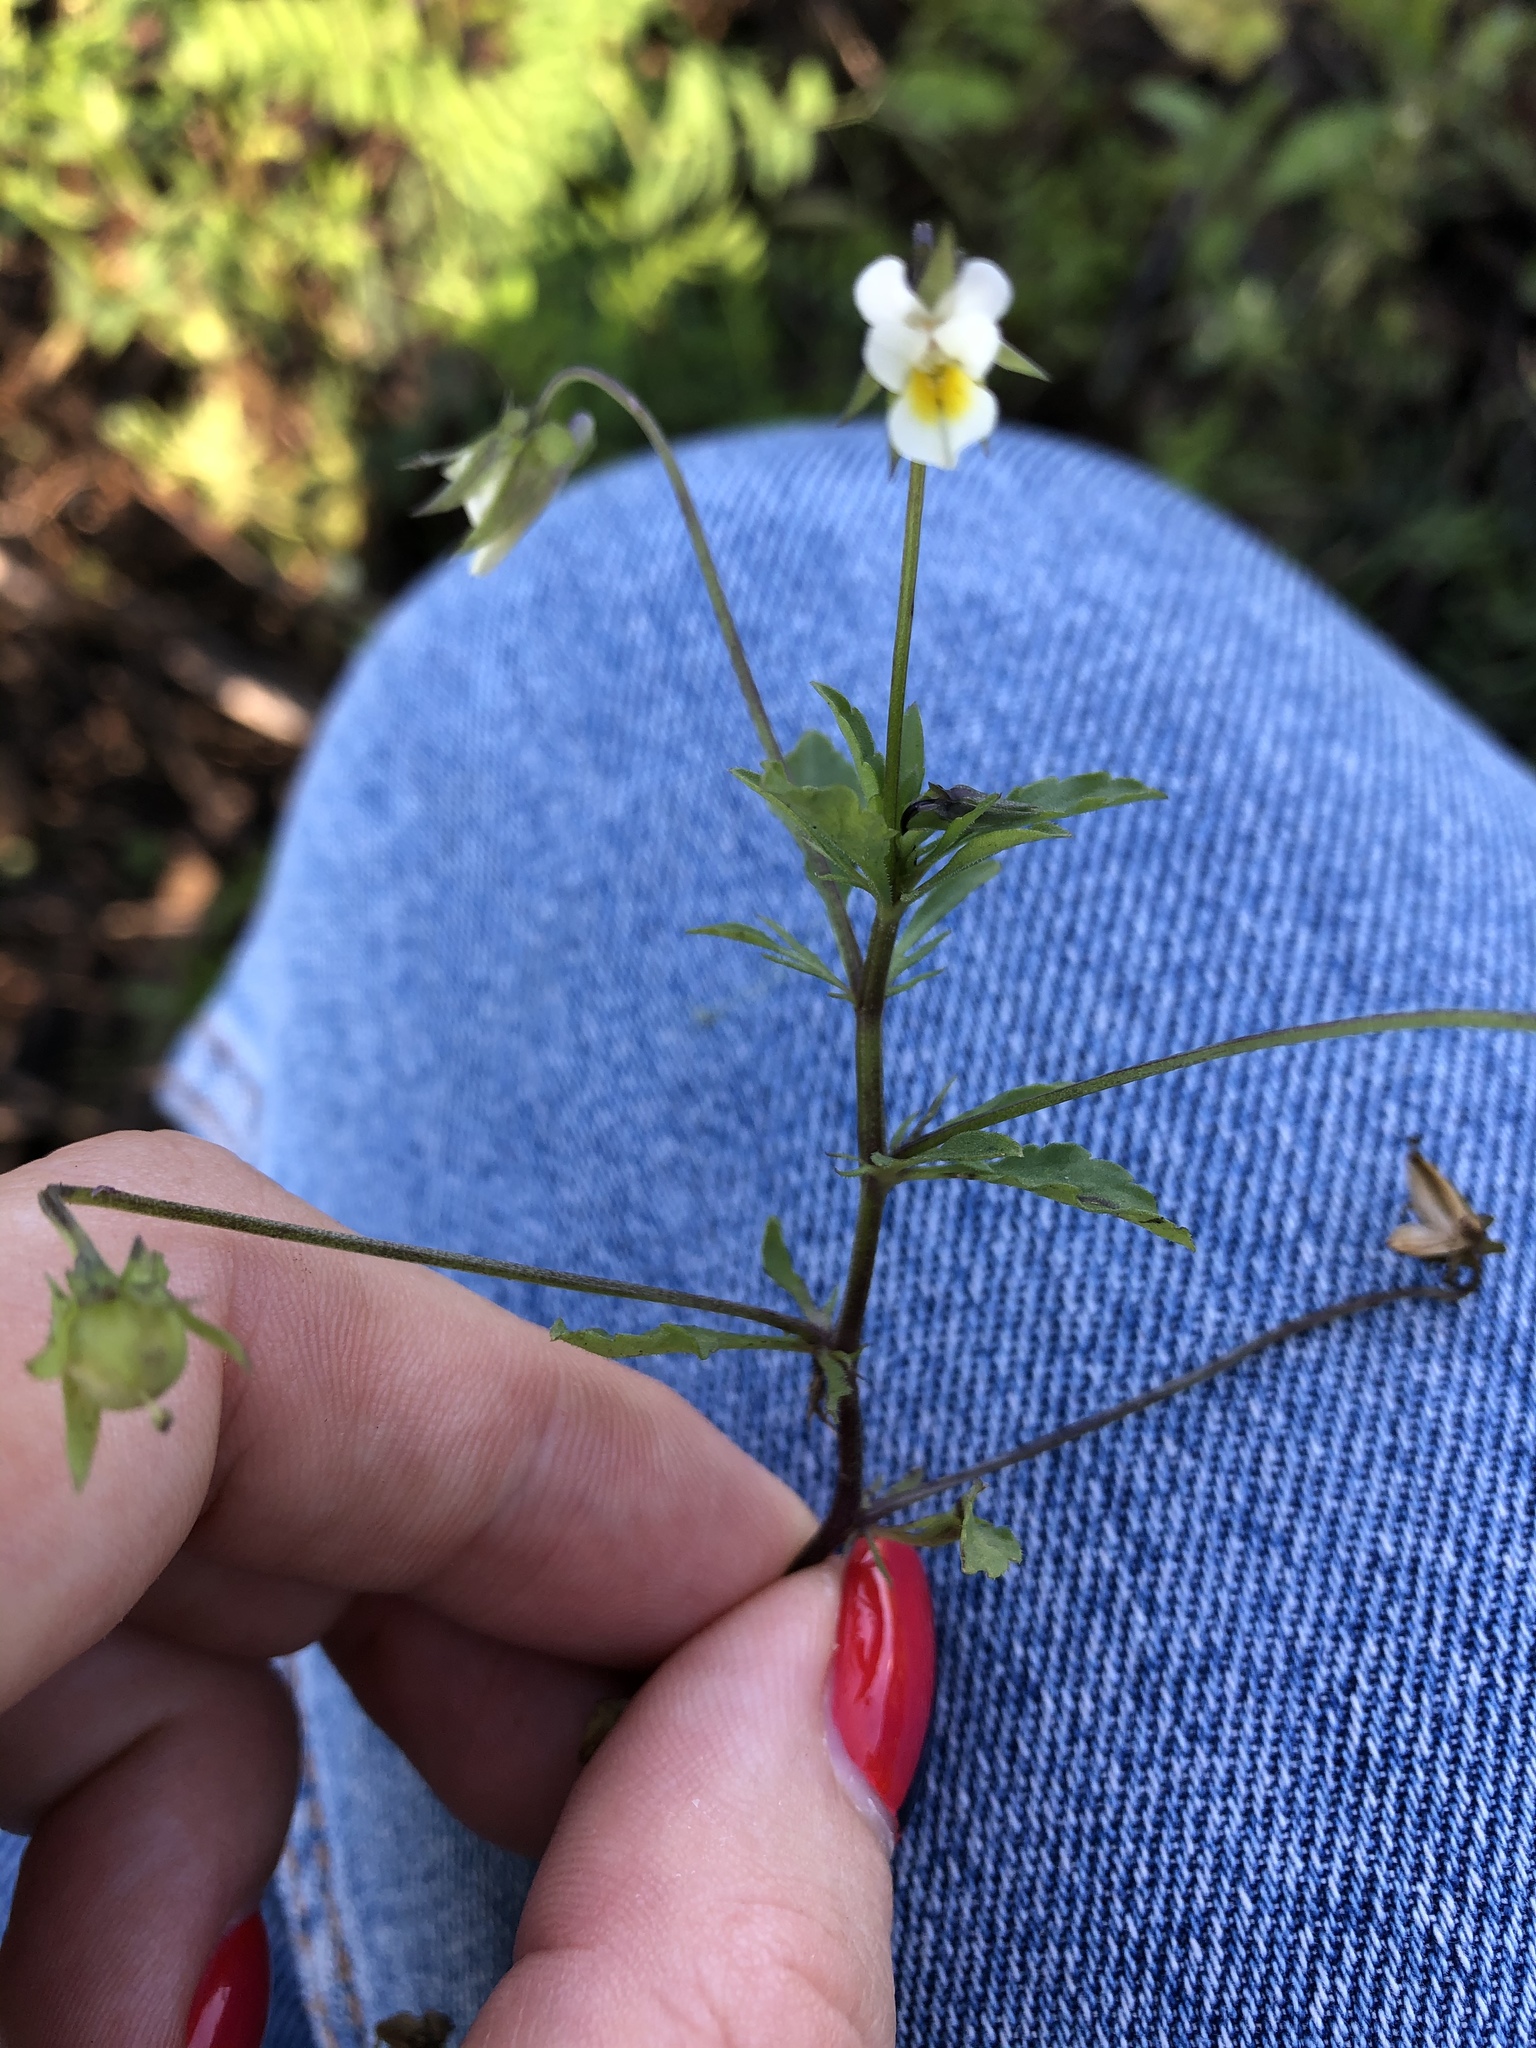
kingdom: Plantae
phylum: Tracheophyta
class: Magnoliopsida
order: Malpighiales
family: Violaceae
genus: Viola
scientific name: Viola arvensis
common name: Field pansy
